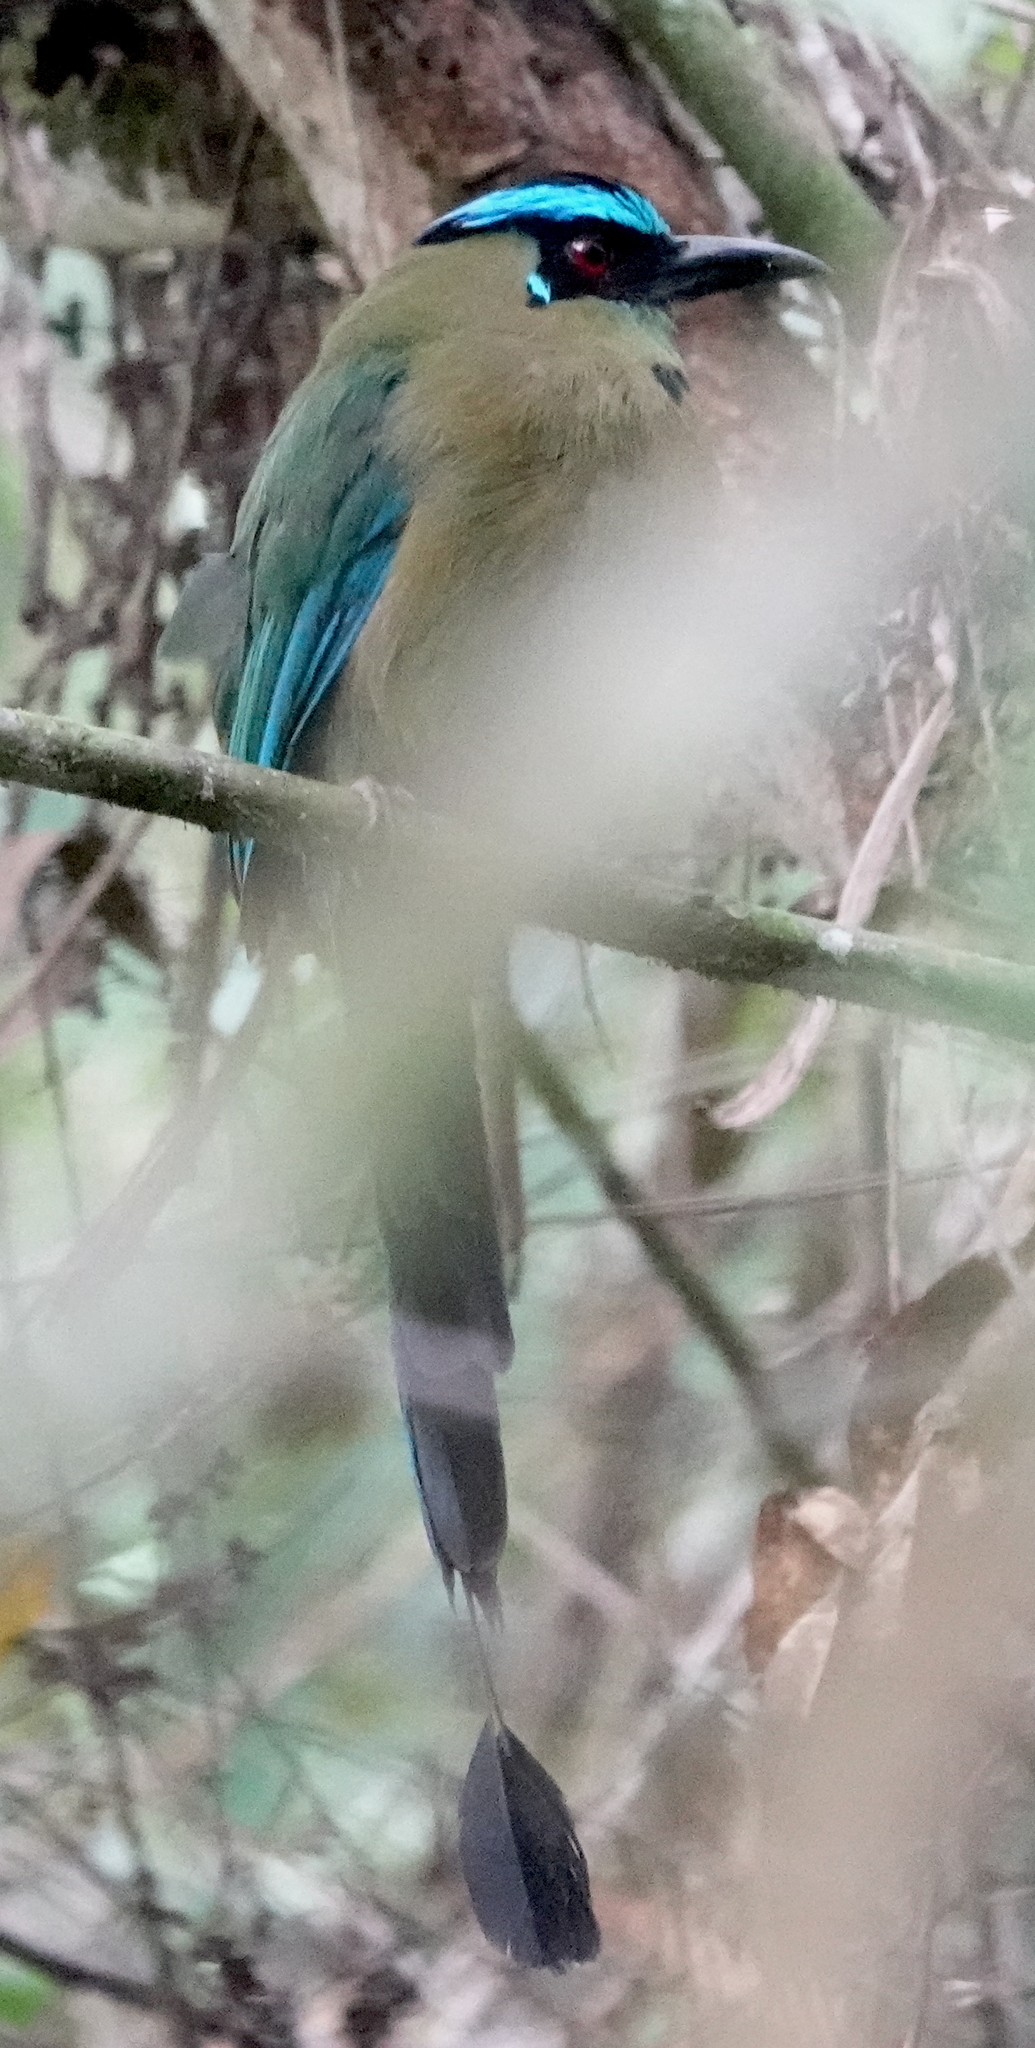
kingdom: Animalia
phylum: Chordata
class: Aves
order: Coraciiformes
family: Momotidae
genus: Momotus
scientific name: Momotus aequatorialis
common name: Andean motmot
